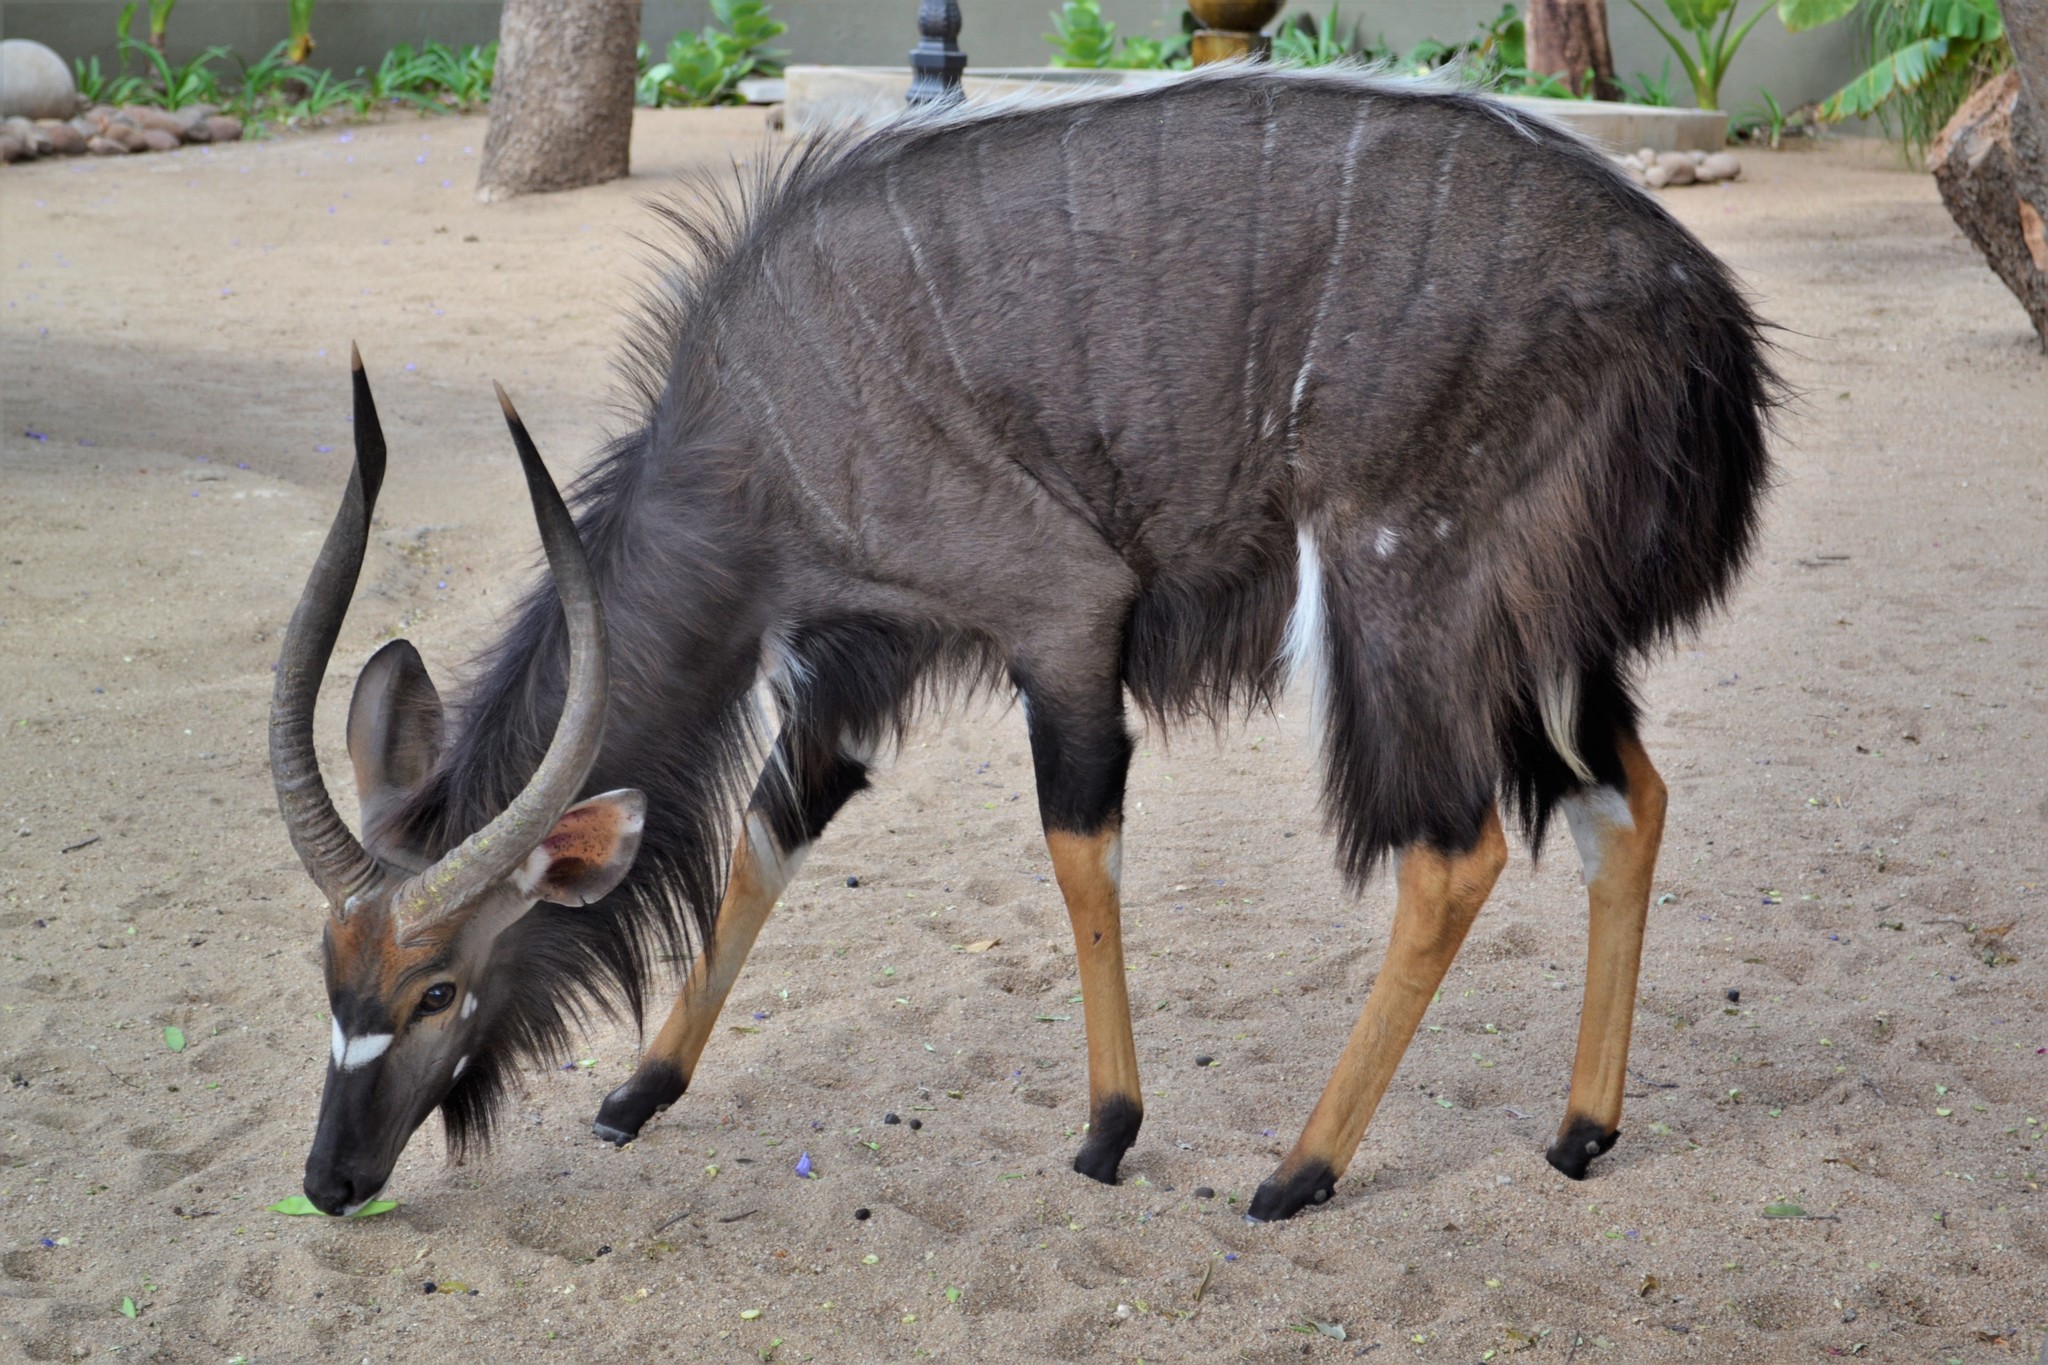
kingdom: Animalia
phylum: Chordata
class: Mammalia
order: Artiodactyla
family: Bovidae
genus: Tragelaphus
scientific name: Tragelaphus angasii
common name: Nyala
